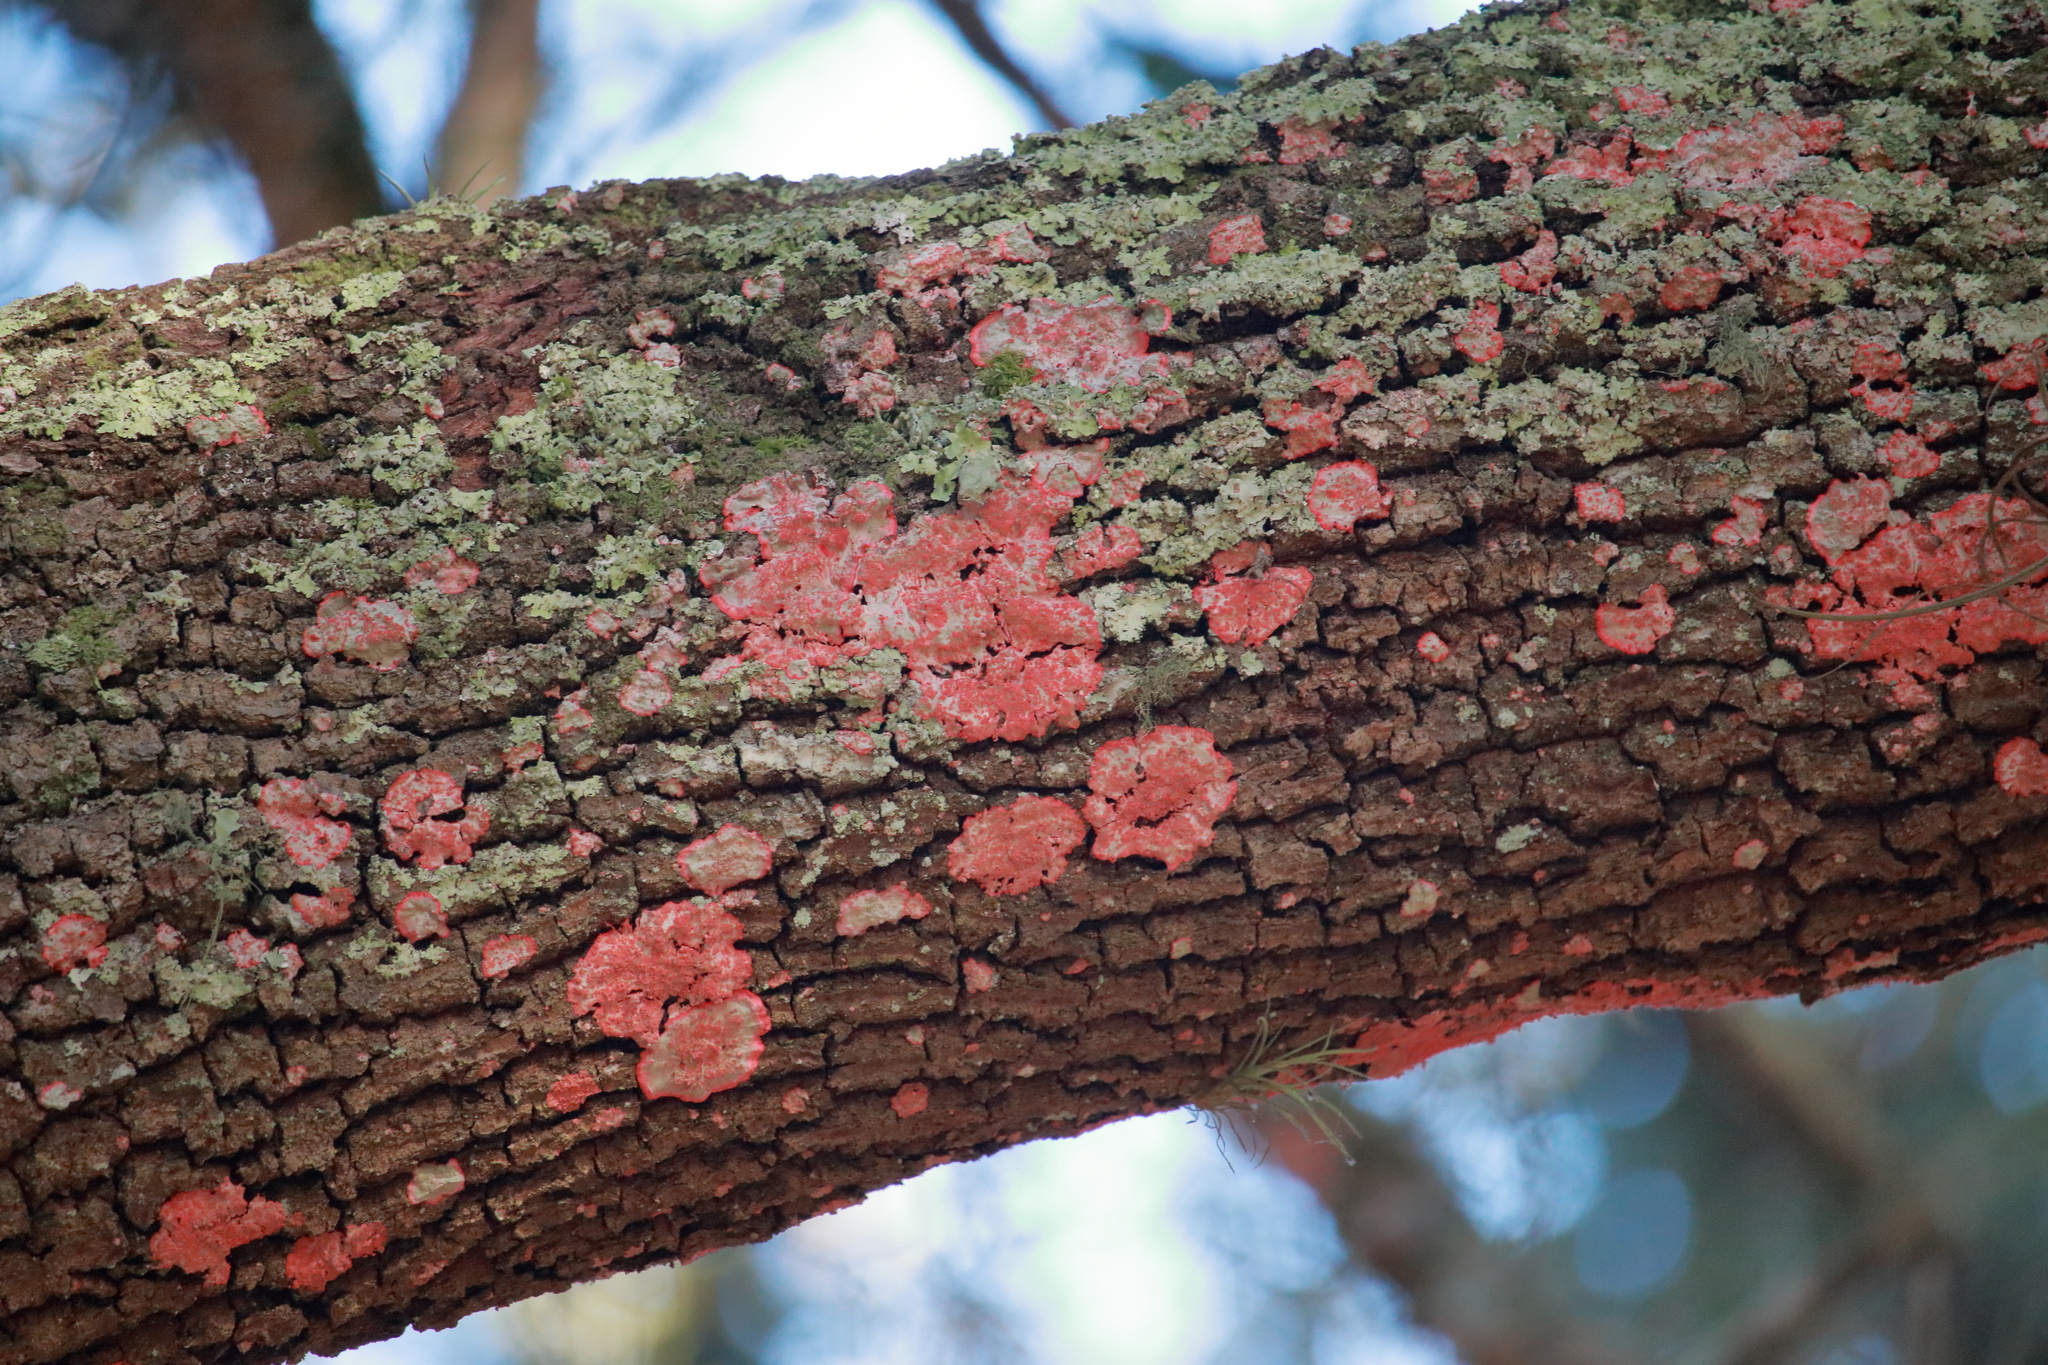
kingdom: Fungi
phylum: Ascomycota
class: Arthoniomycetes
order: Arthoniales
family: Arthoniaceae
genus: Herpothallon
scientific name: Herpothallon rubrocinctum
